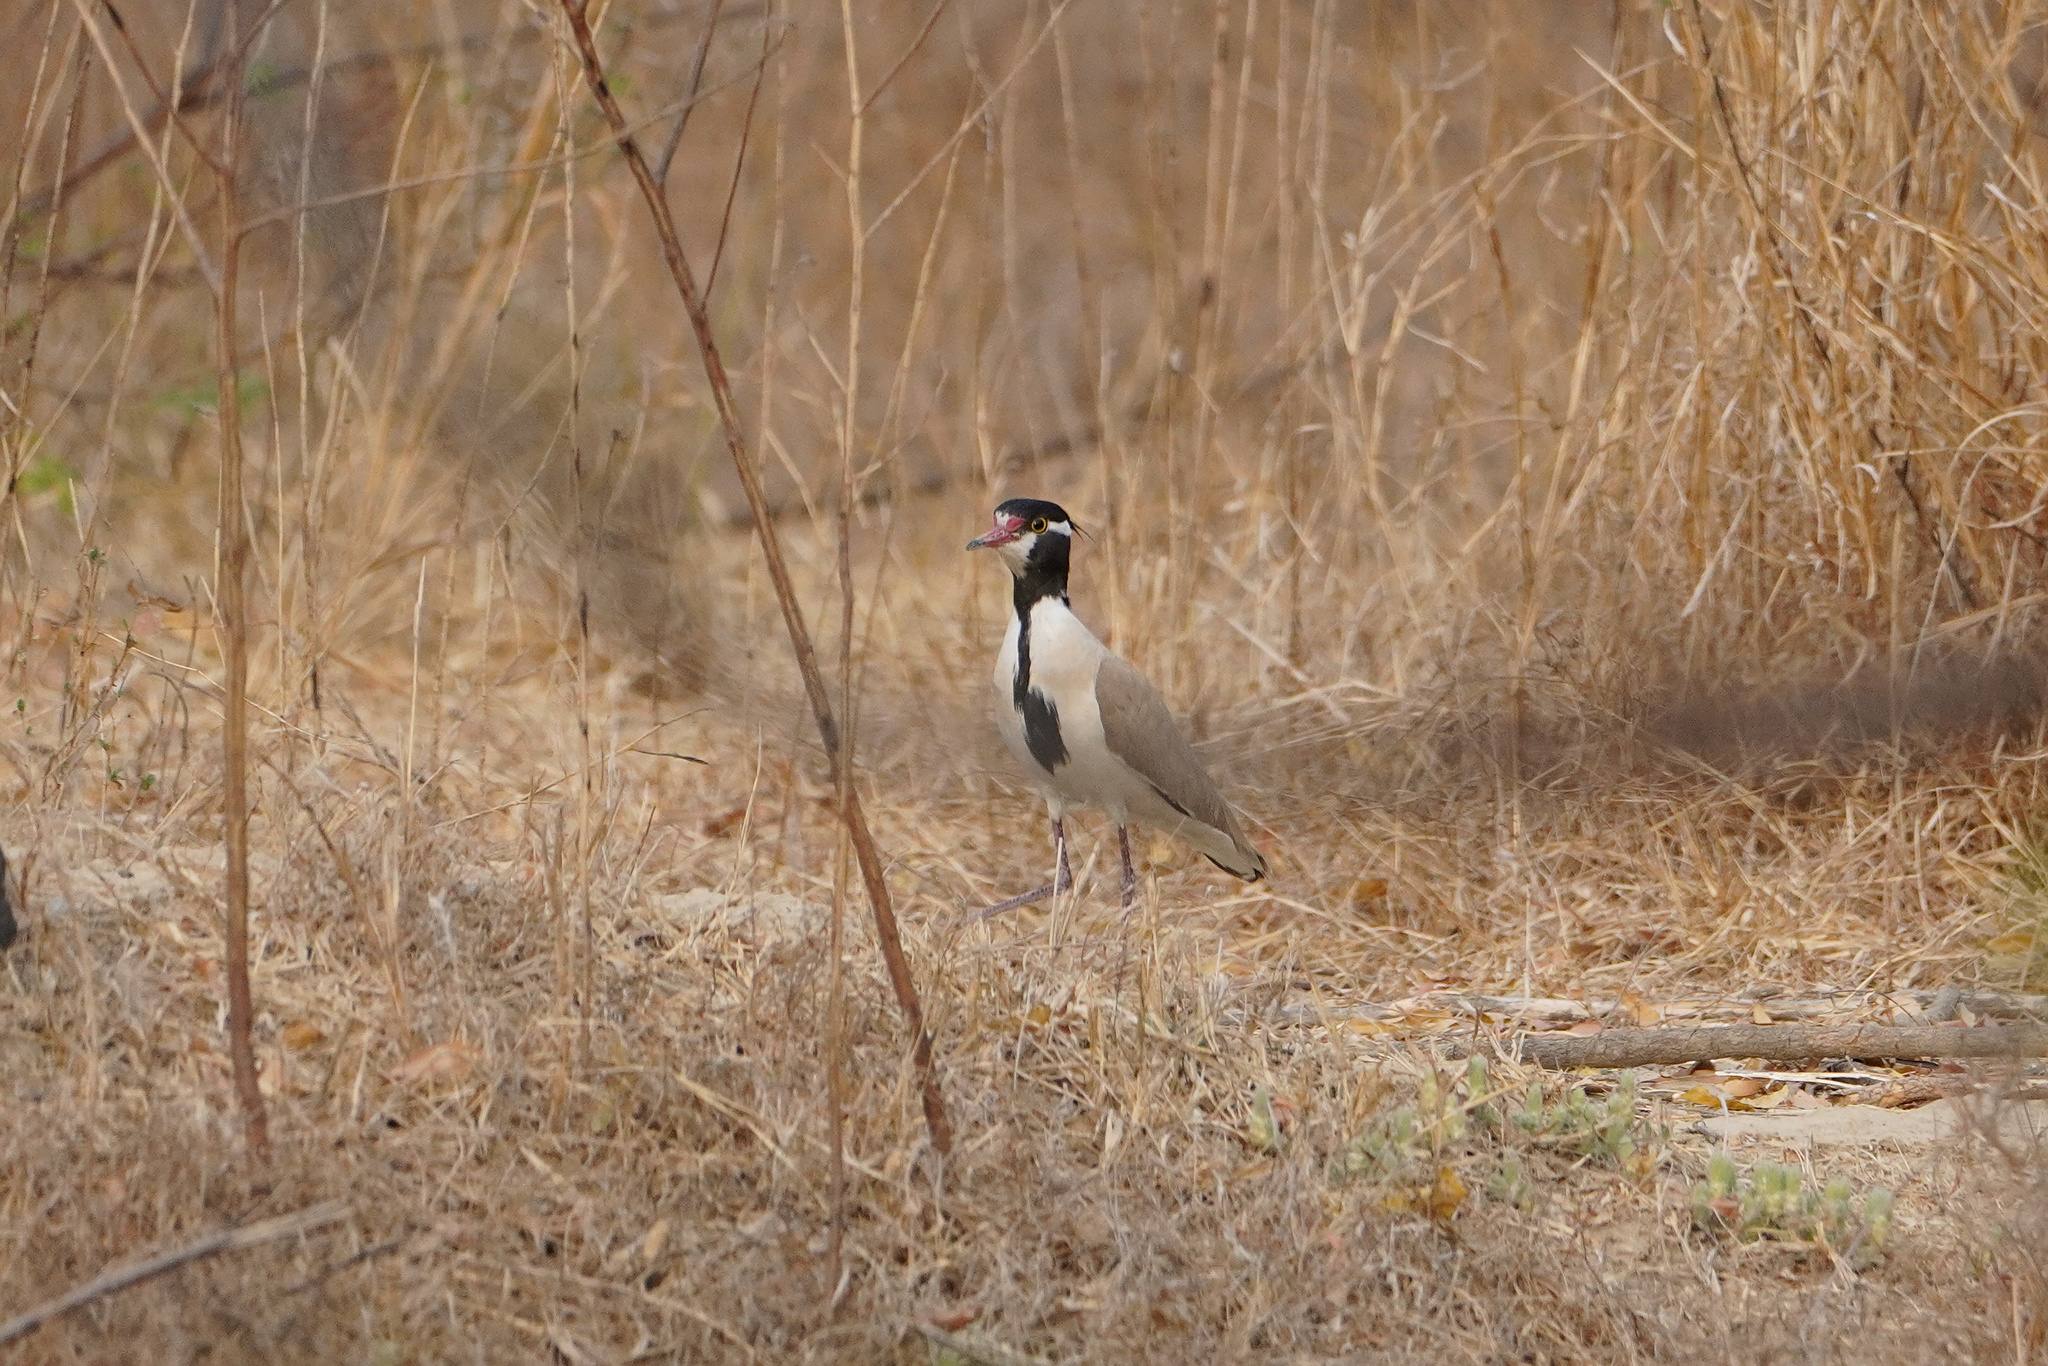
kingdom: Animalia
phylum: Chordata
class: Aves
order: Charadriiformes
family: Charadriidae
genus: Vanellus
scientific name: Vanellus tectus
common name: Black-headed lapwing
